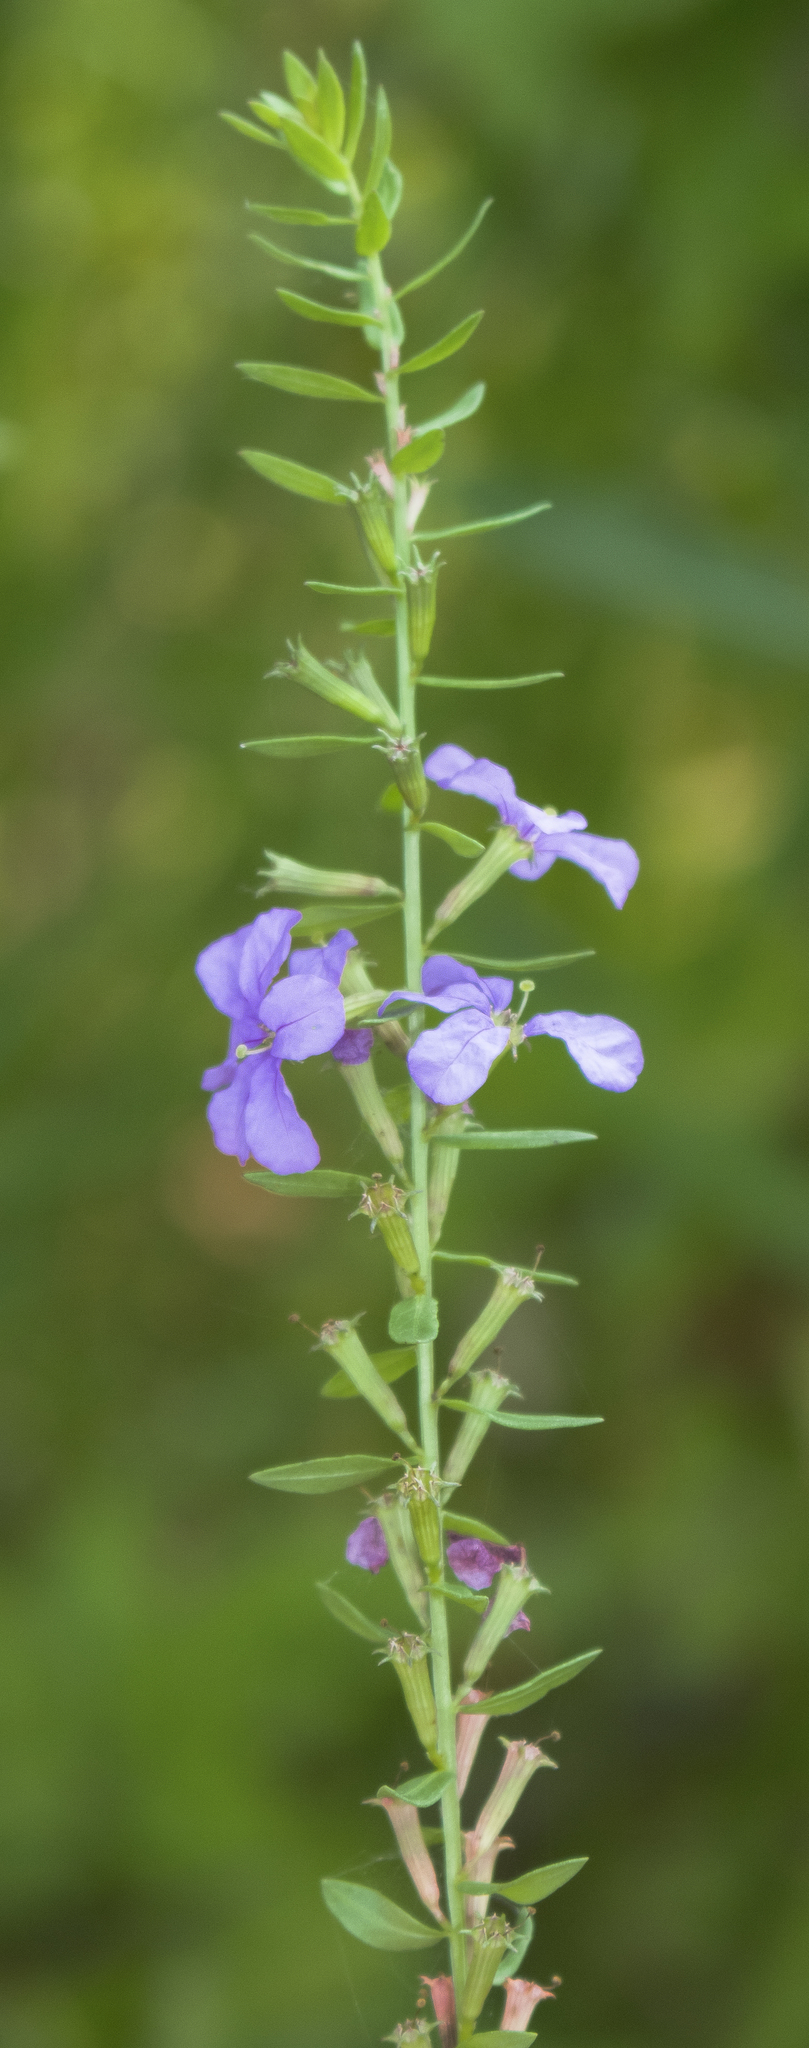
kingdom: Plantae
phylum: Tracheophyta
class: Magnoliopsida
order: Myrtales
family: Lythraceae
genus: Lythrum
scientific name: Lythrum alatum
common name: Winged loosestrife
